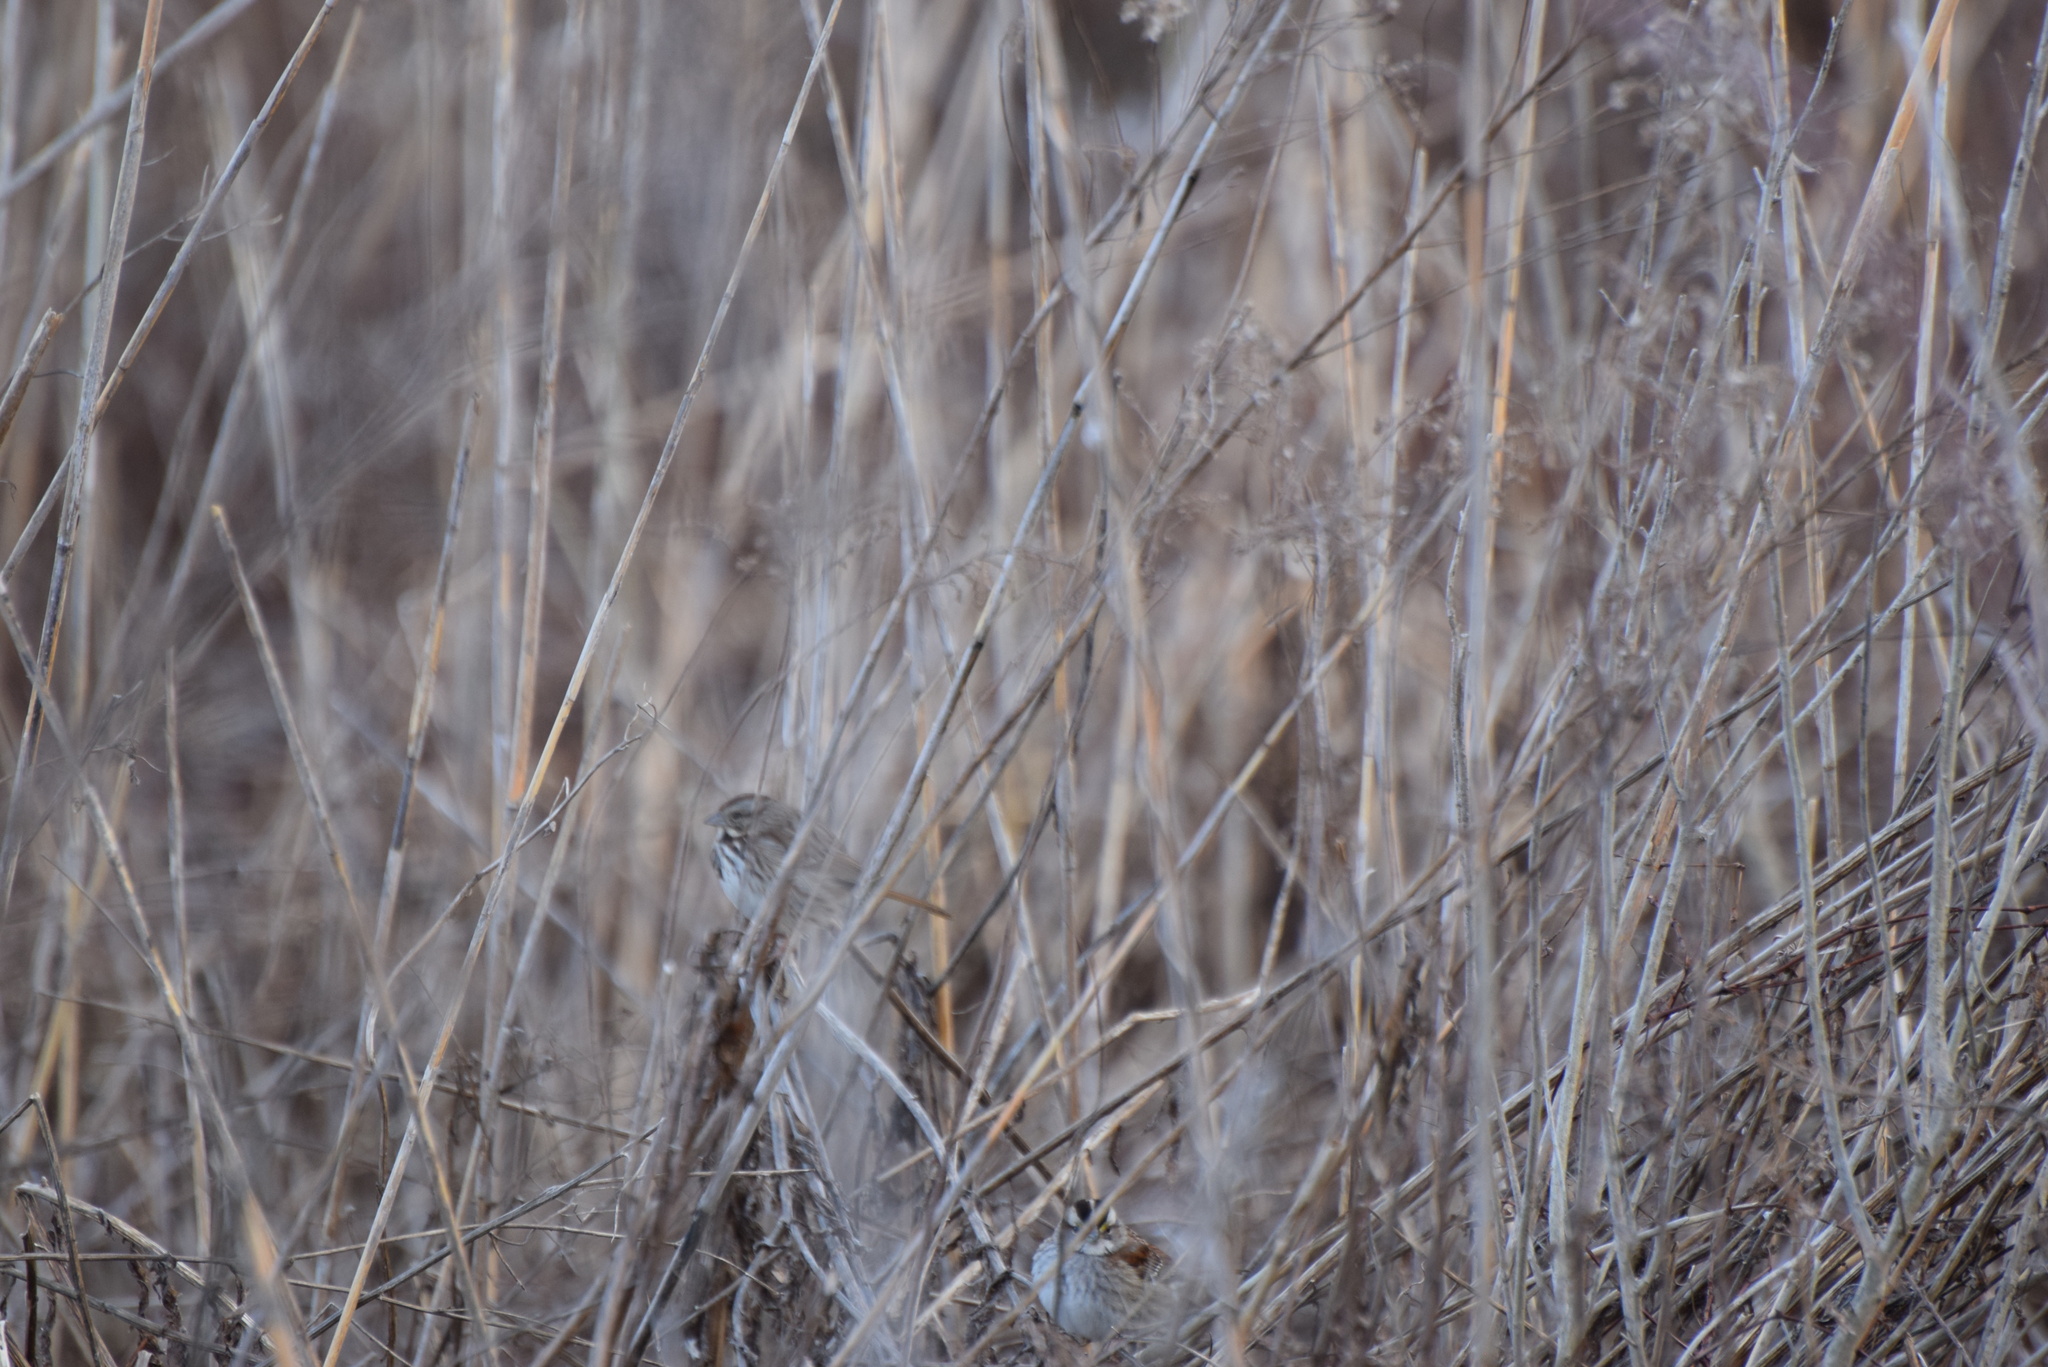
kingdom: Animalia
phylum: Chordata
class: Aves
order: Passeriformes
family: Passerellidae
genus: Melospiza
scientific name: Melospiza melodia
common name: Song sparrow
